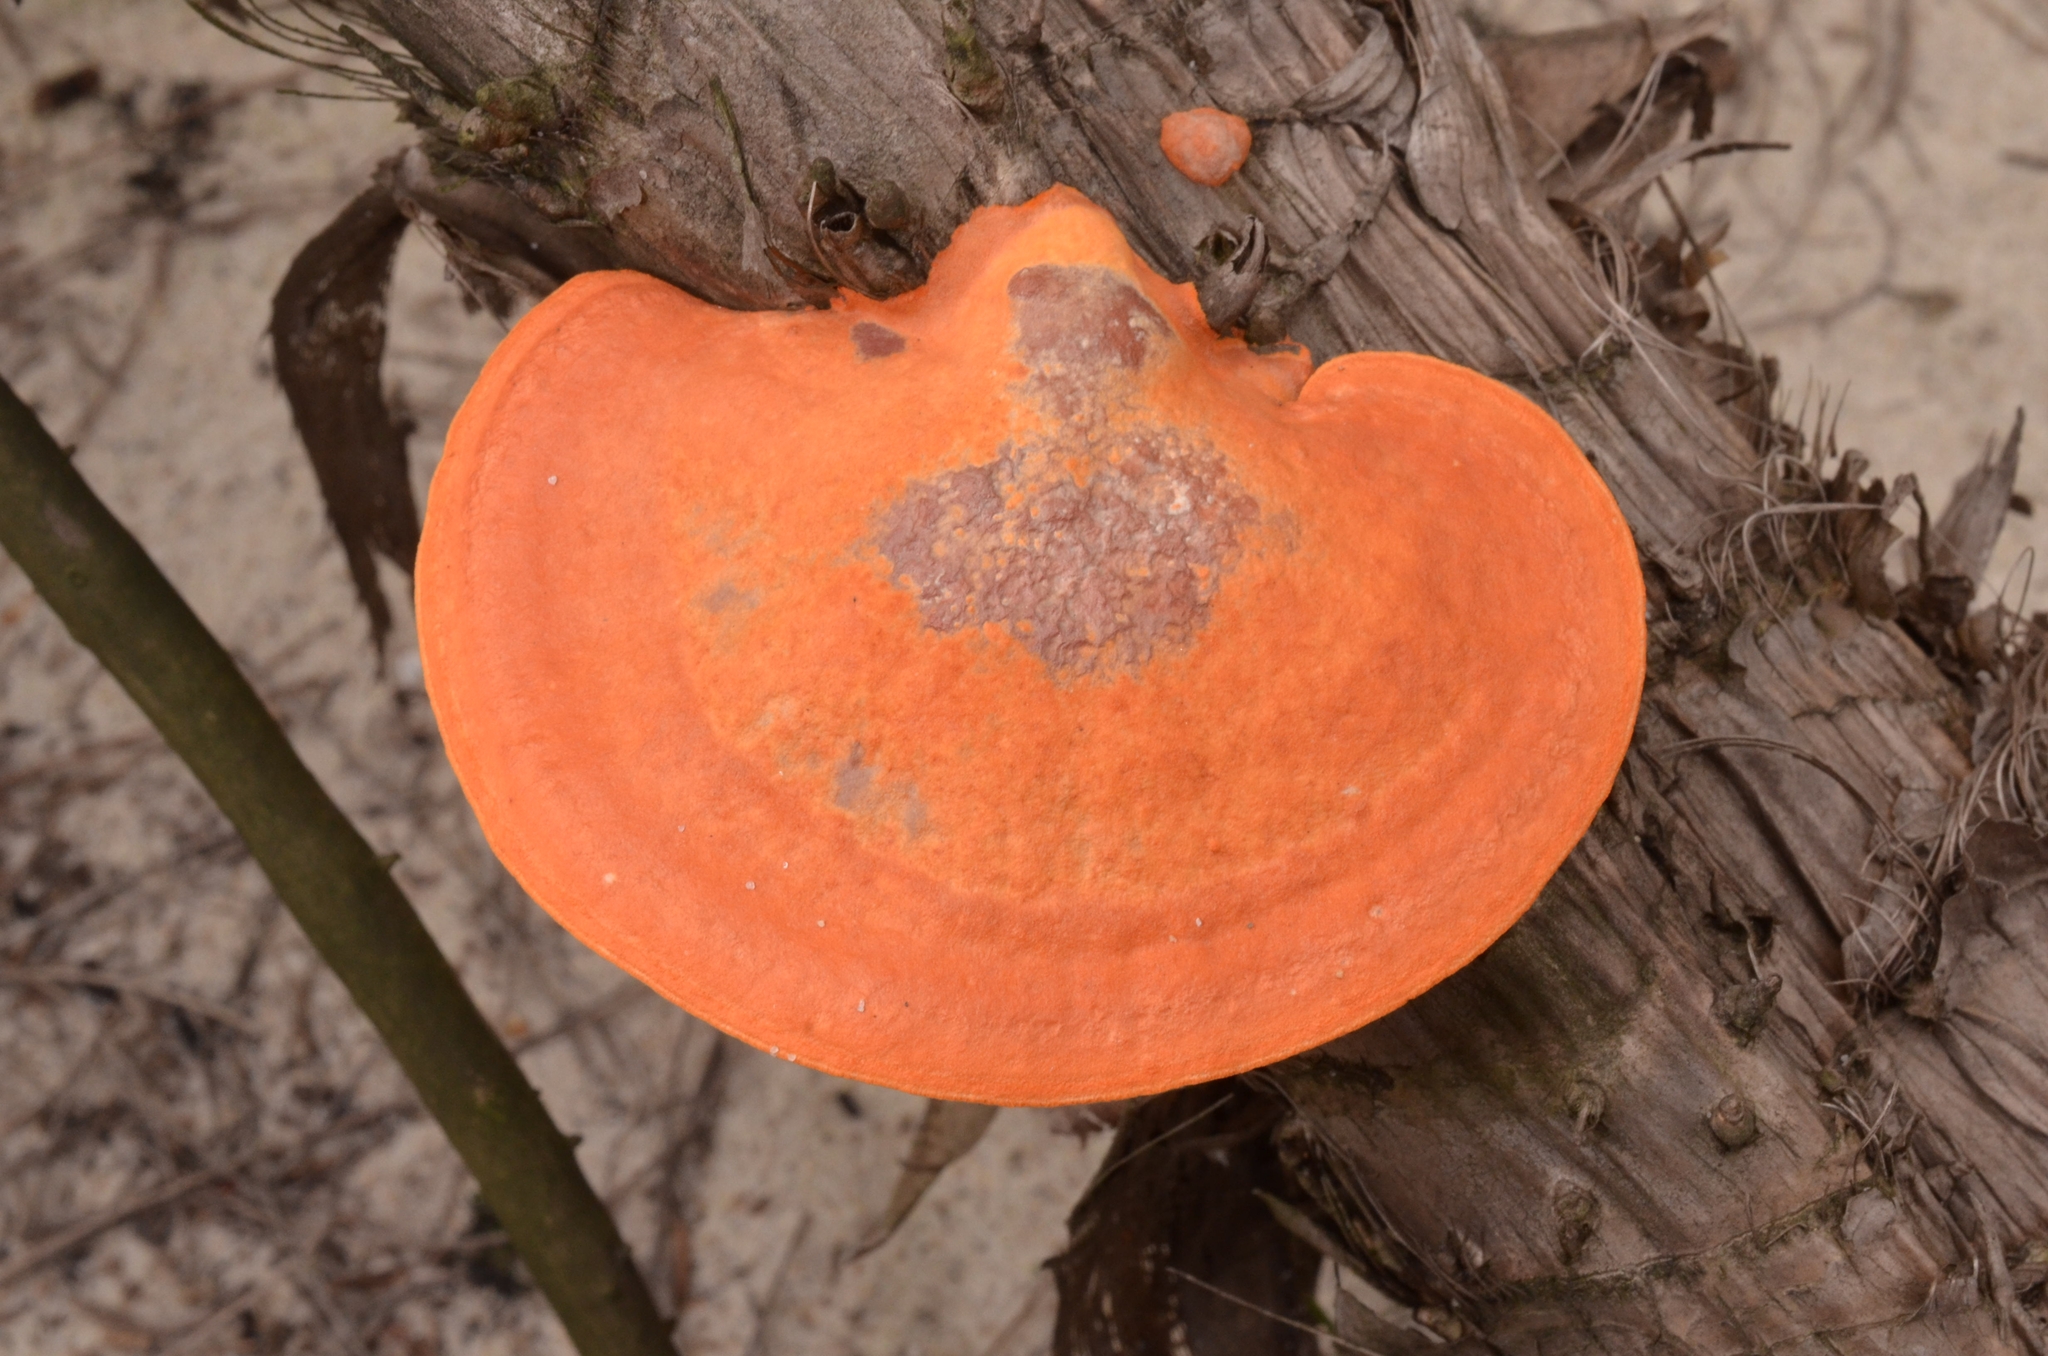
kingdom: Fungi
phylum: Basidiomycota
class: Agaricomycetes
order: Polyporales
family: Polyporaceae
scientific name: Polyporaceae
